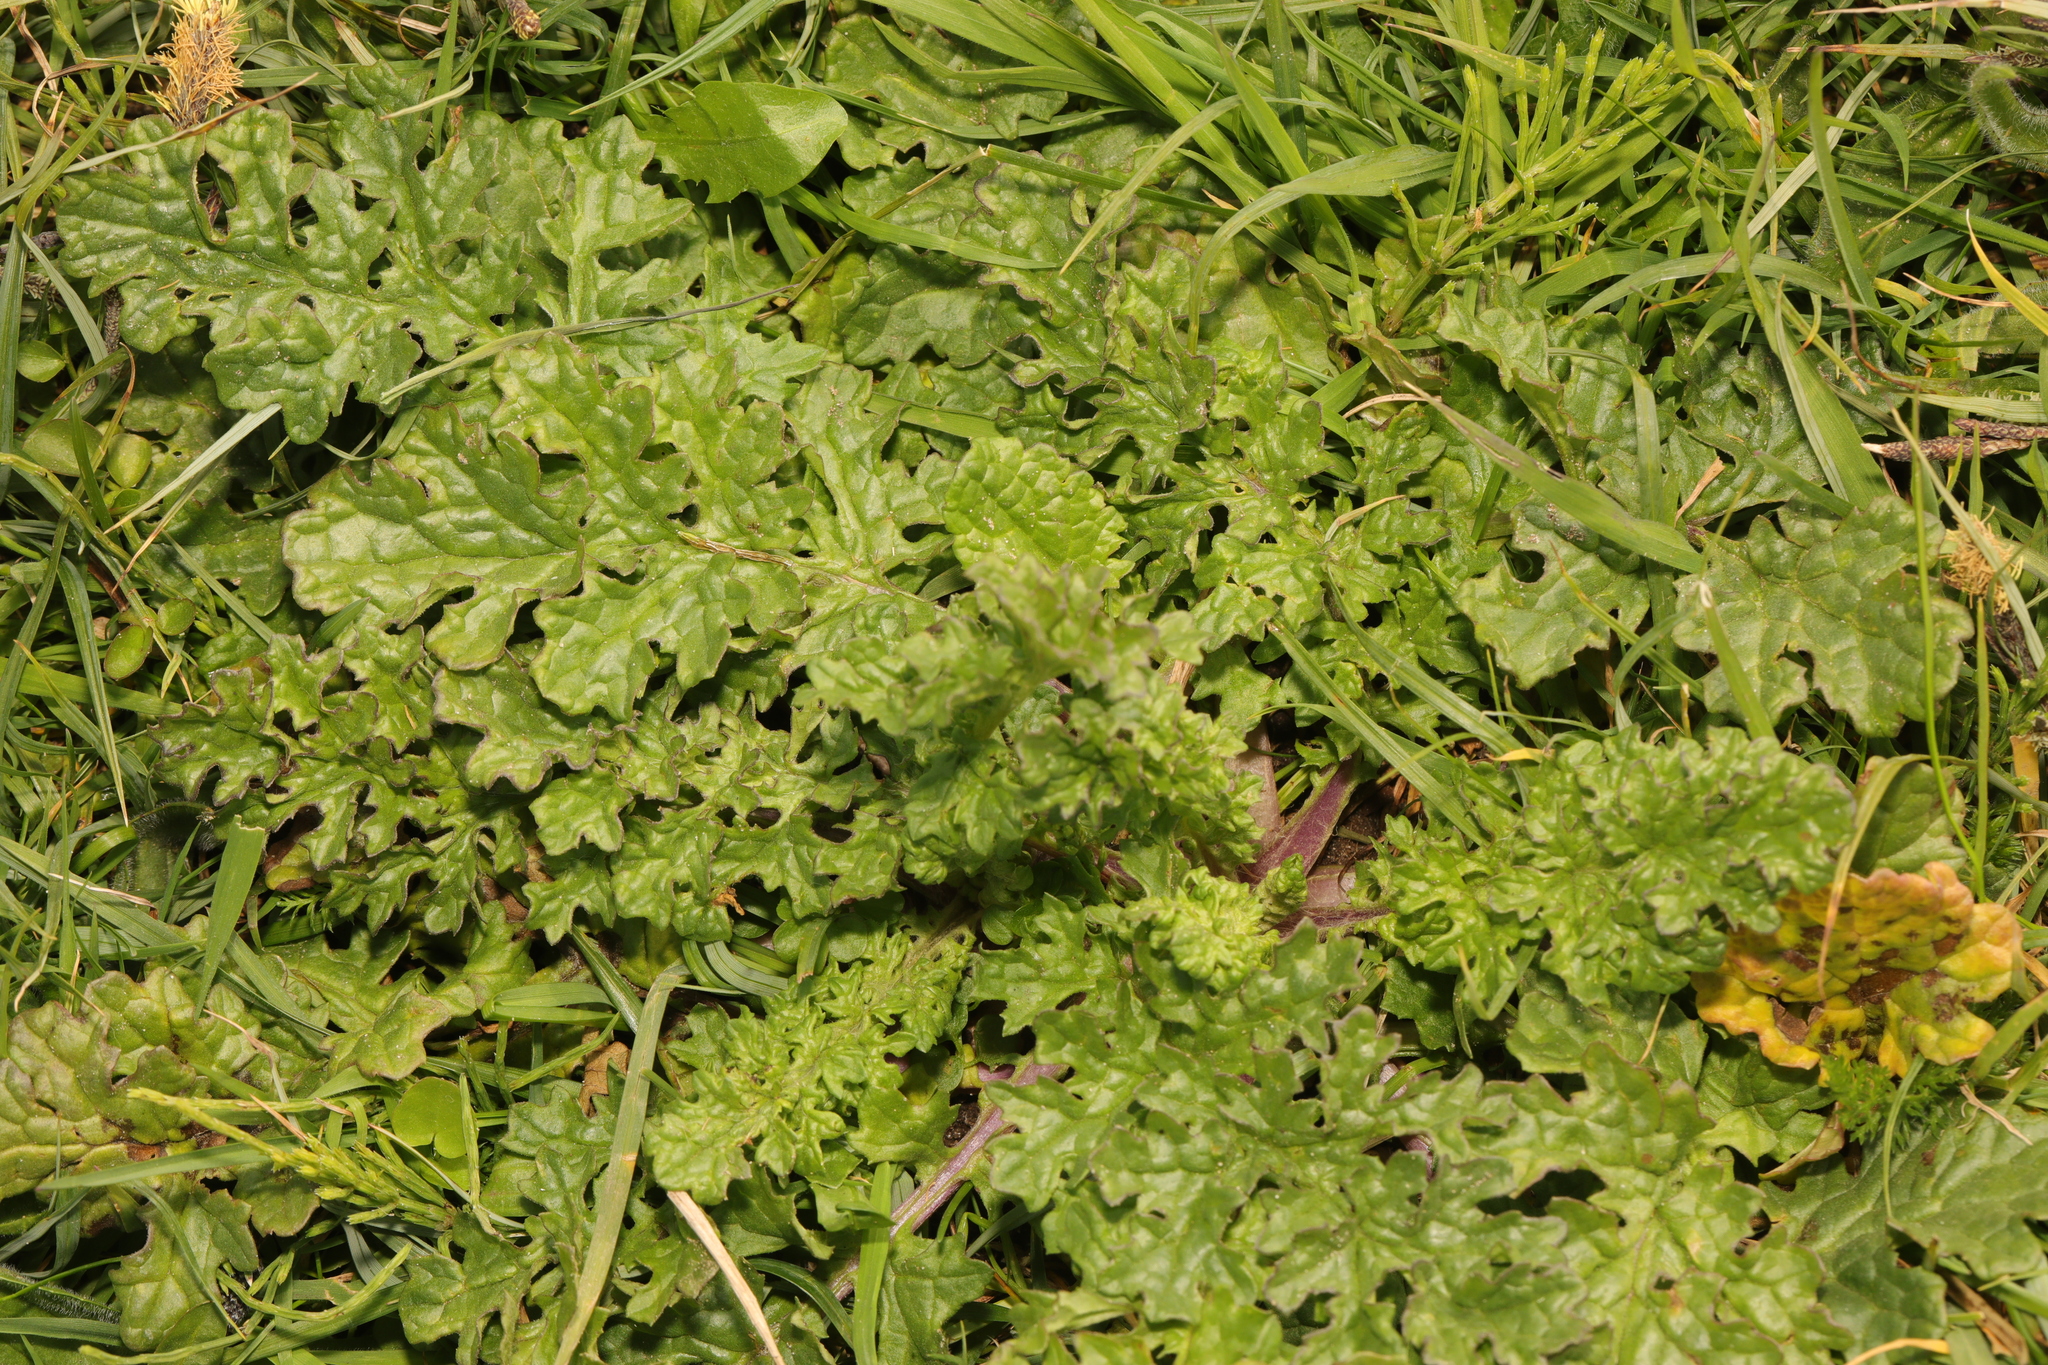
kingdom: Plantae
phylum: Tracheophyta
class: Magnoliopsida
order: Asterales
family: Asteraceae
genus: Jacobaea
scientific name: Jacobaea vulgaris
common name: Stinking willie
